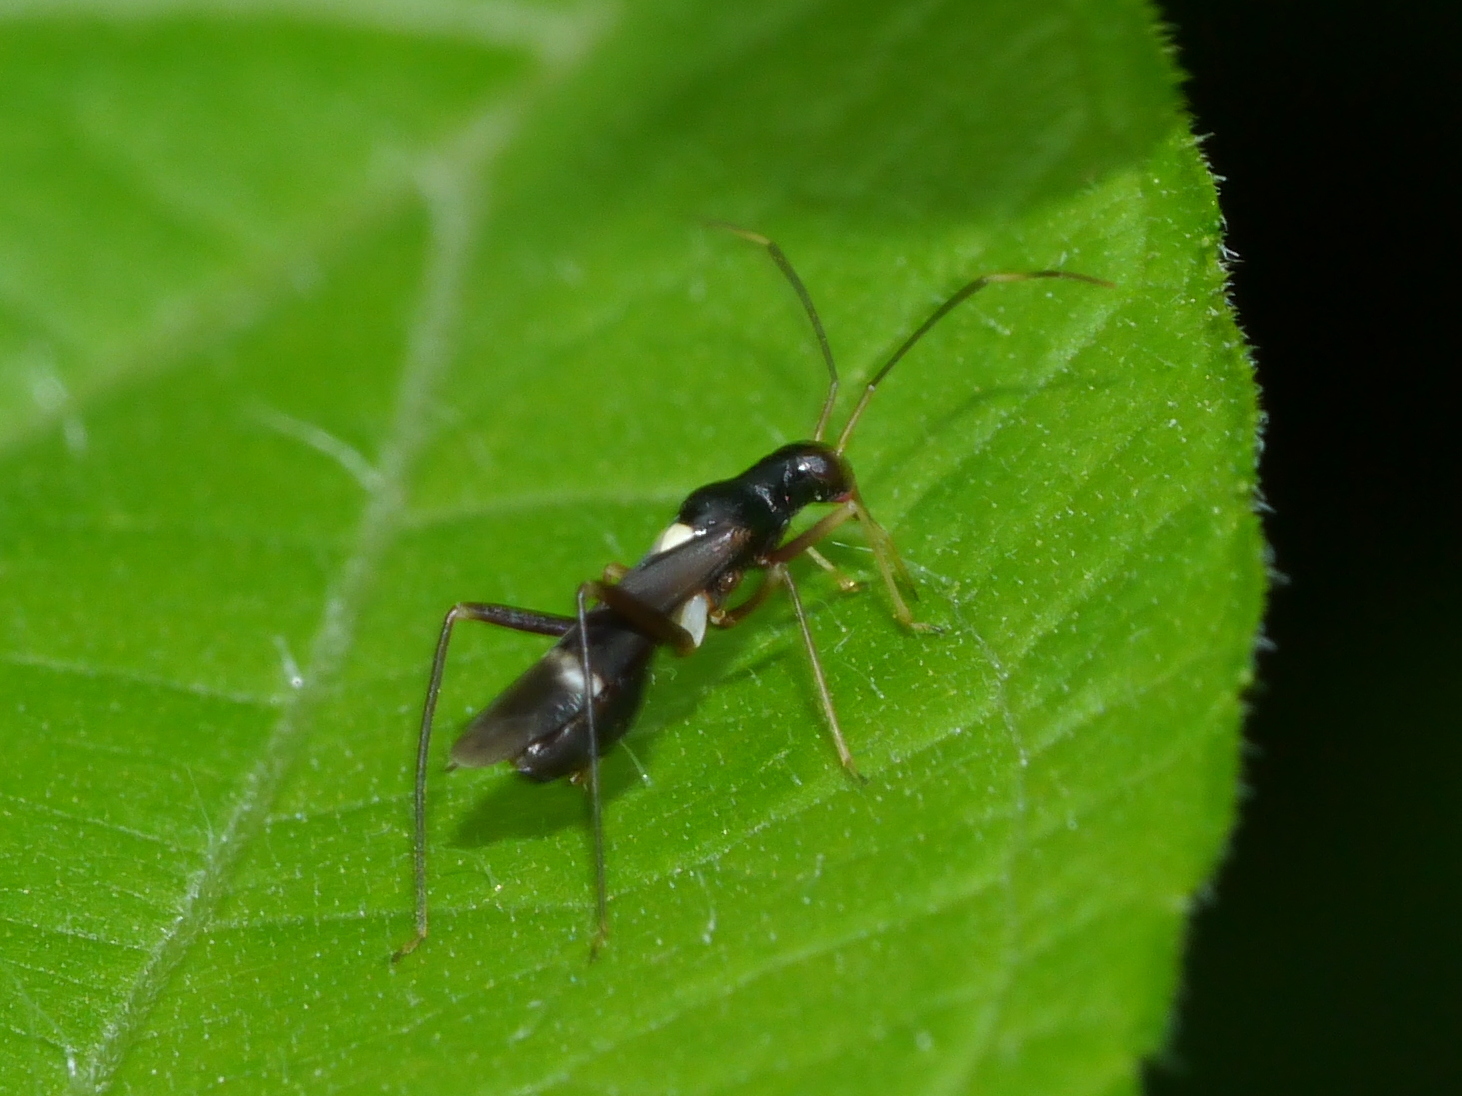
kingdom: Animalia
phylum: Arthropoda
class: Insecta
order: Hemiptera
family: Miridae
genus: Pseudoxenetus
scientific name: Pseudoxenetus regalis
